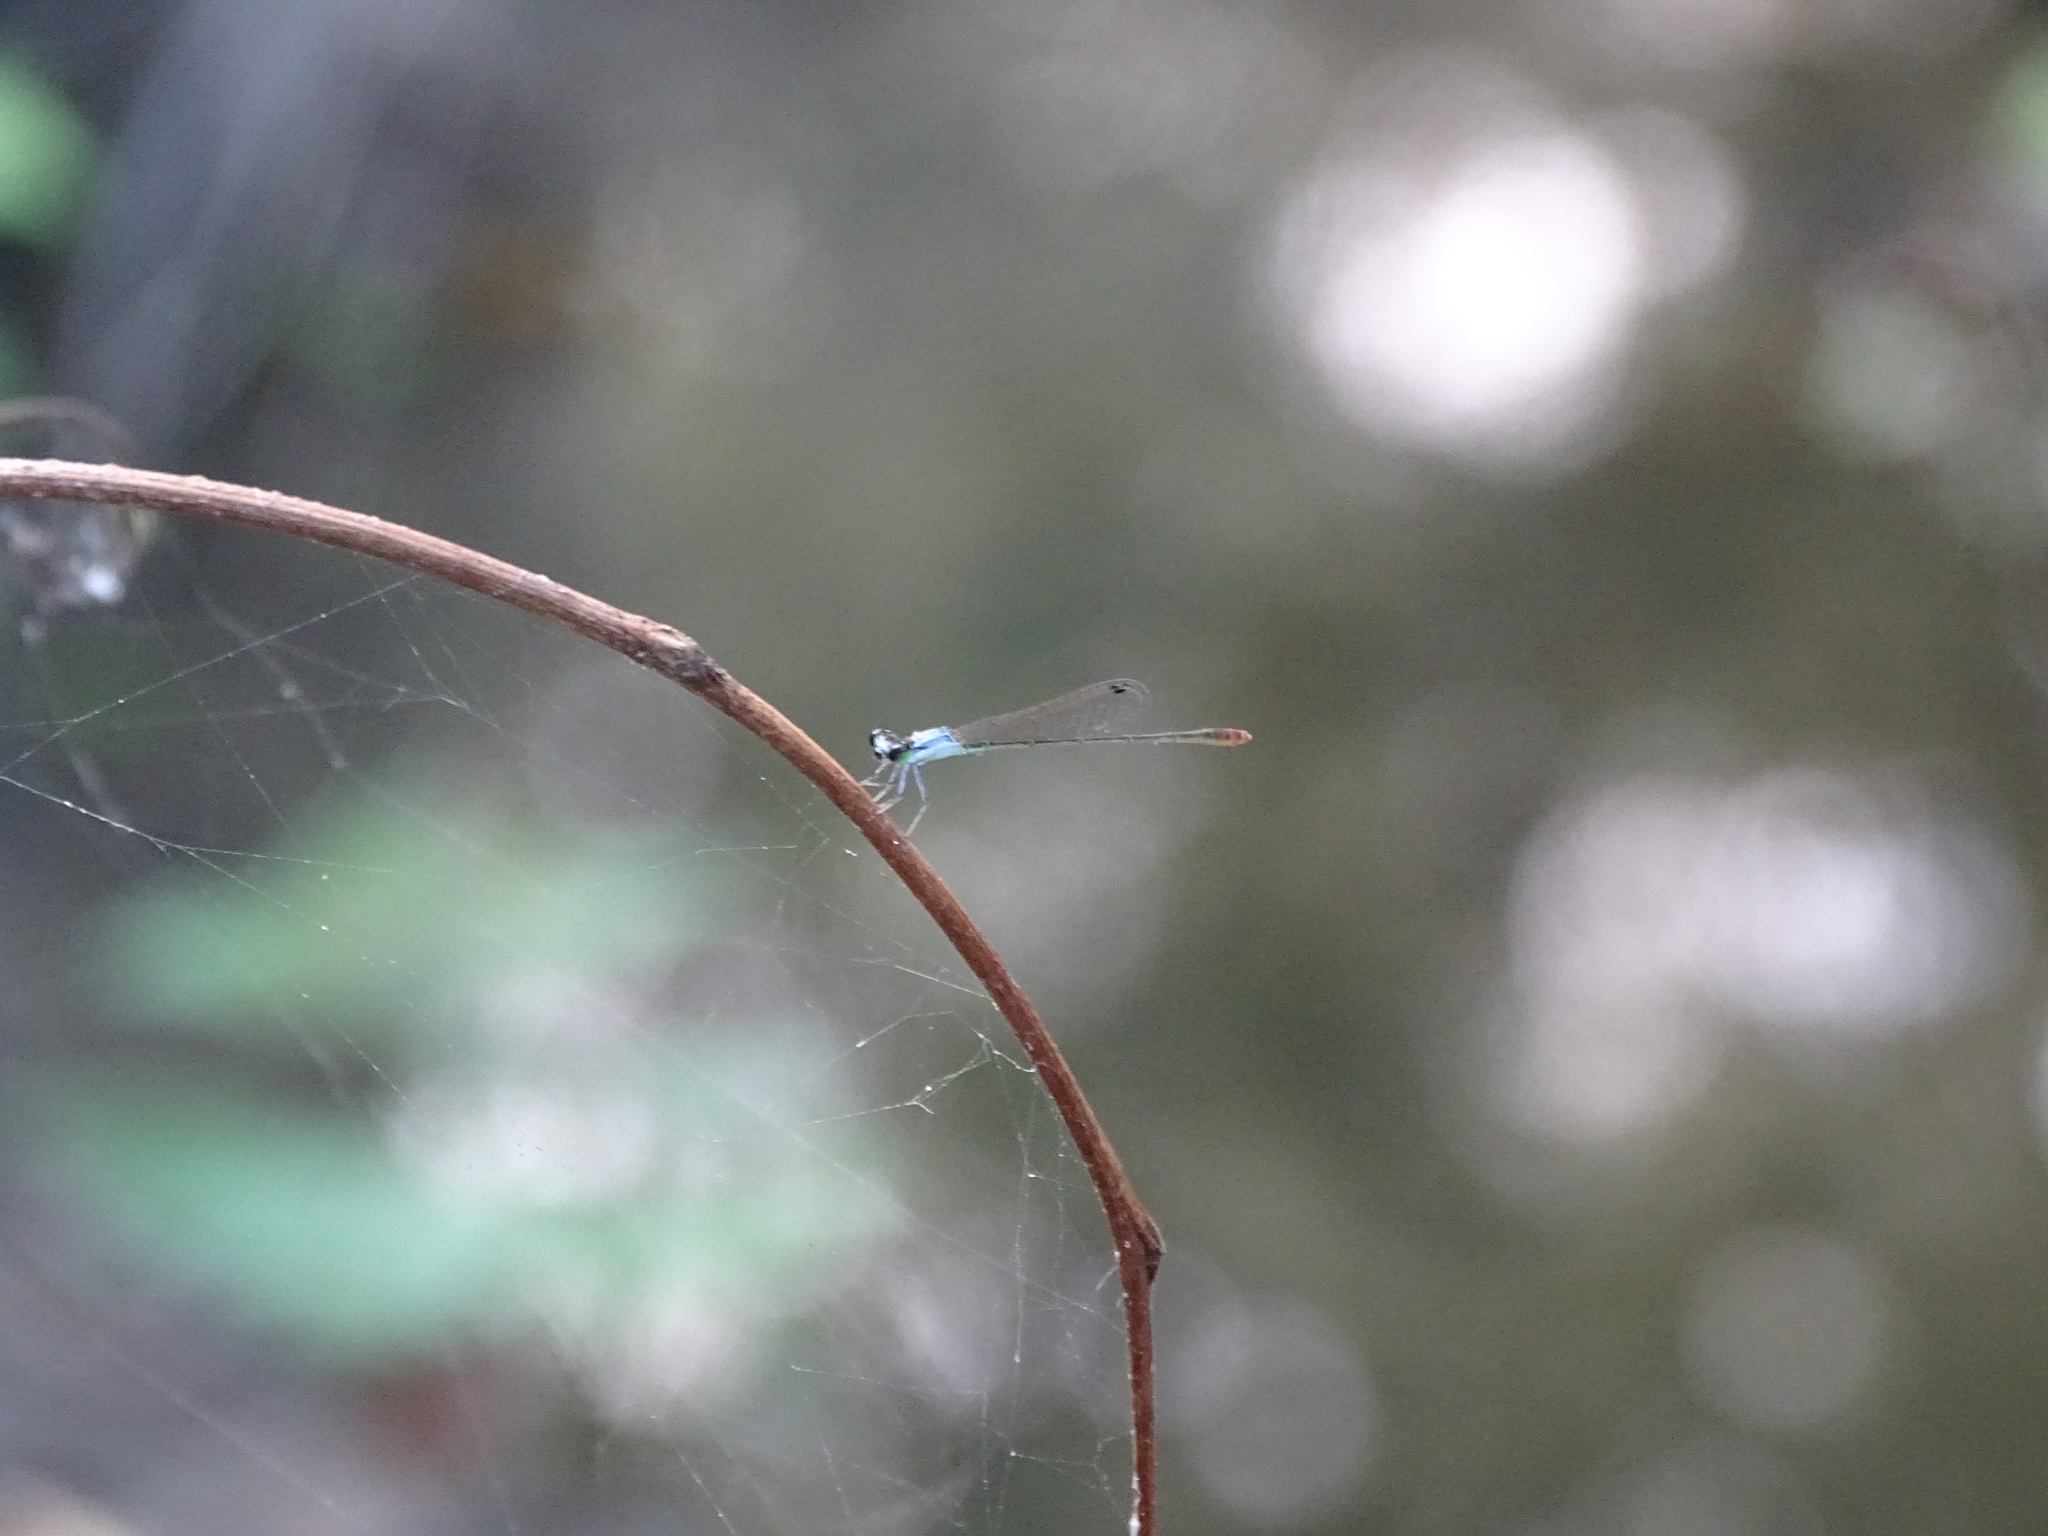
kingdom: Animalia
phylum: Arthropoda
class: Insecta
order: Odonata
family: Coenagrionidae
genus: Agriocnemis
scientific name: Agriocnemis femina
